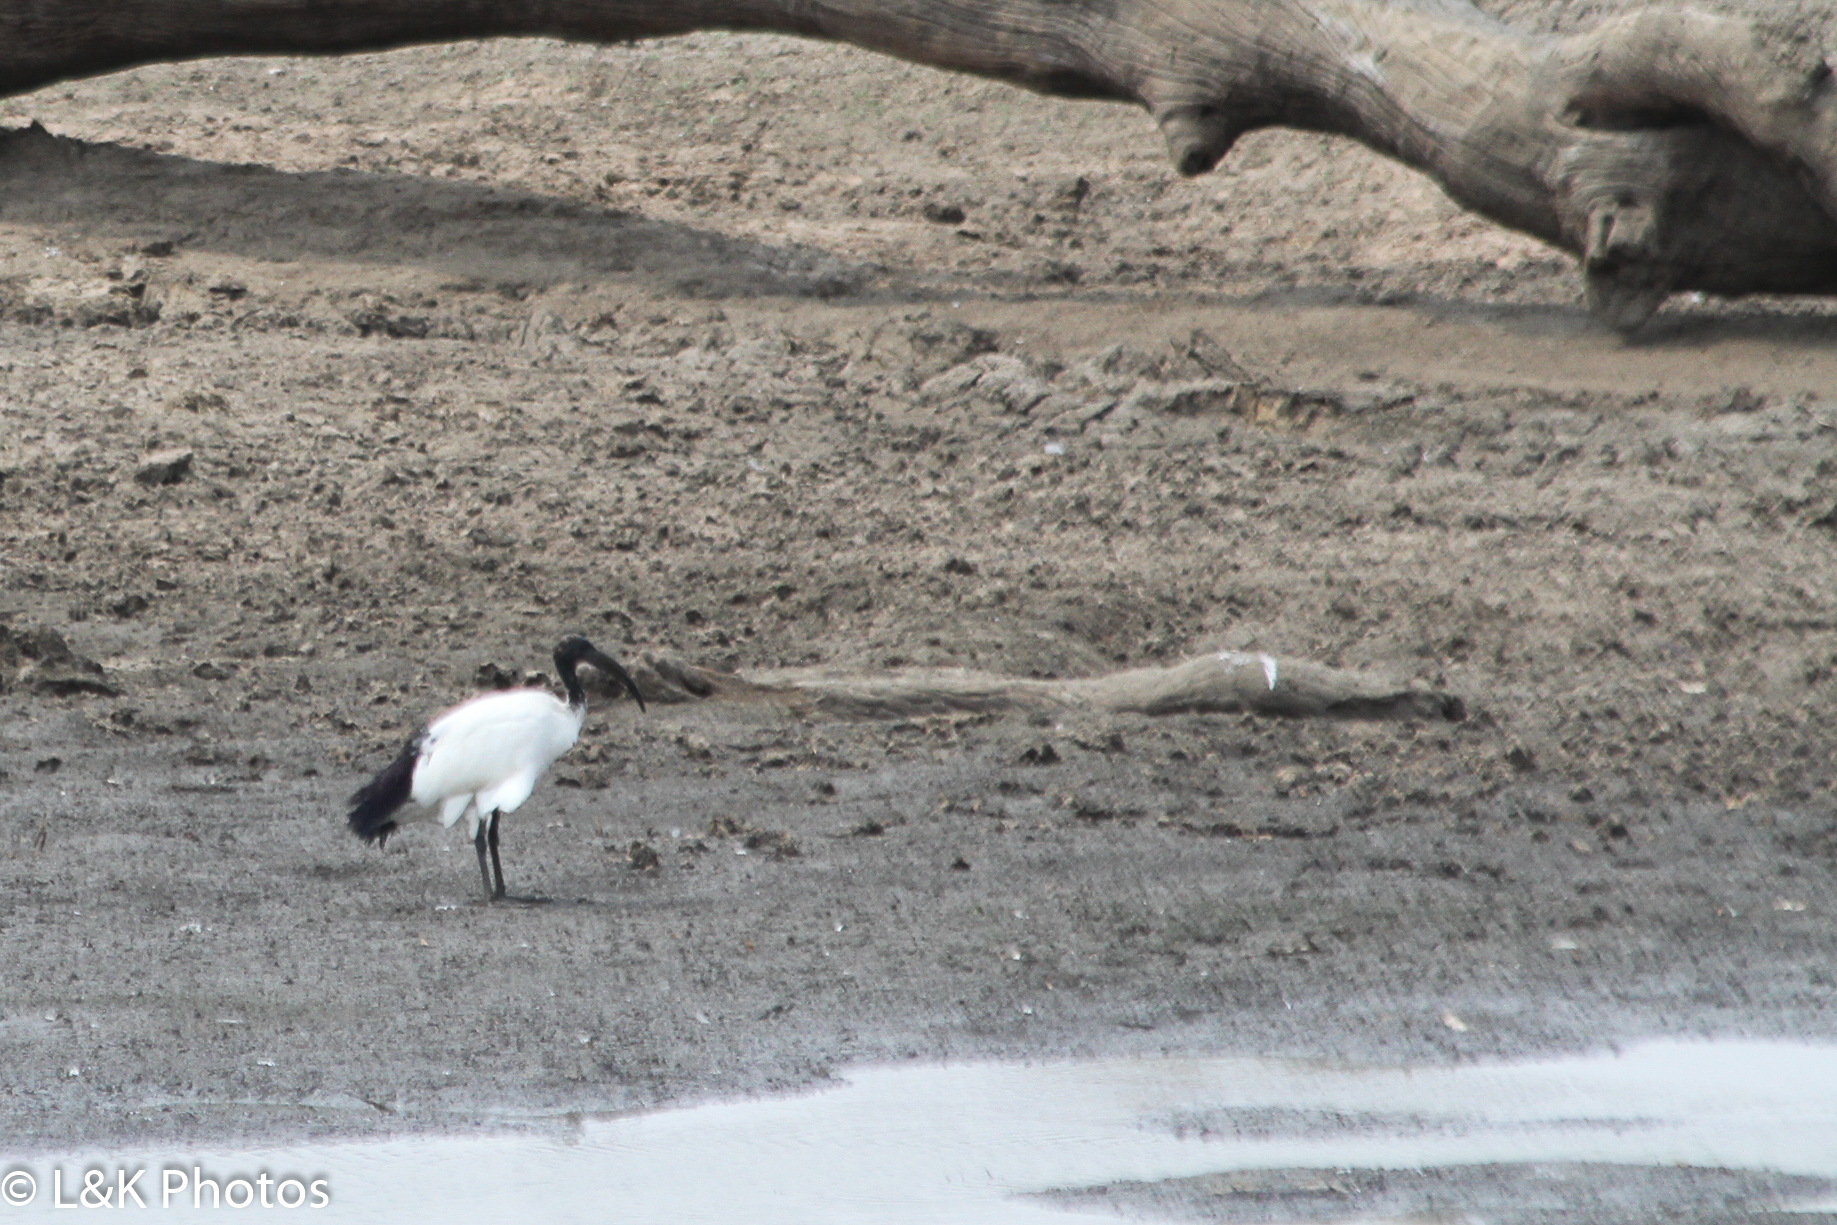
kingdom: Animalia
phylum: Chordata
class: Aves
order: Pelecaniformes
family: Threskiornithidae
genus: Threskiornis
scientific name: Threskiornis aethiopicus
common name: Sacred ibis
